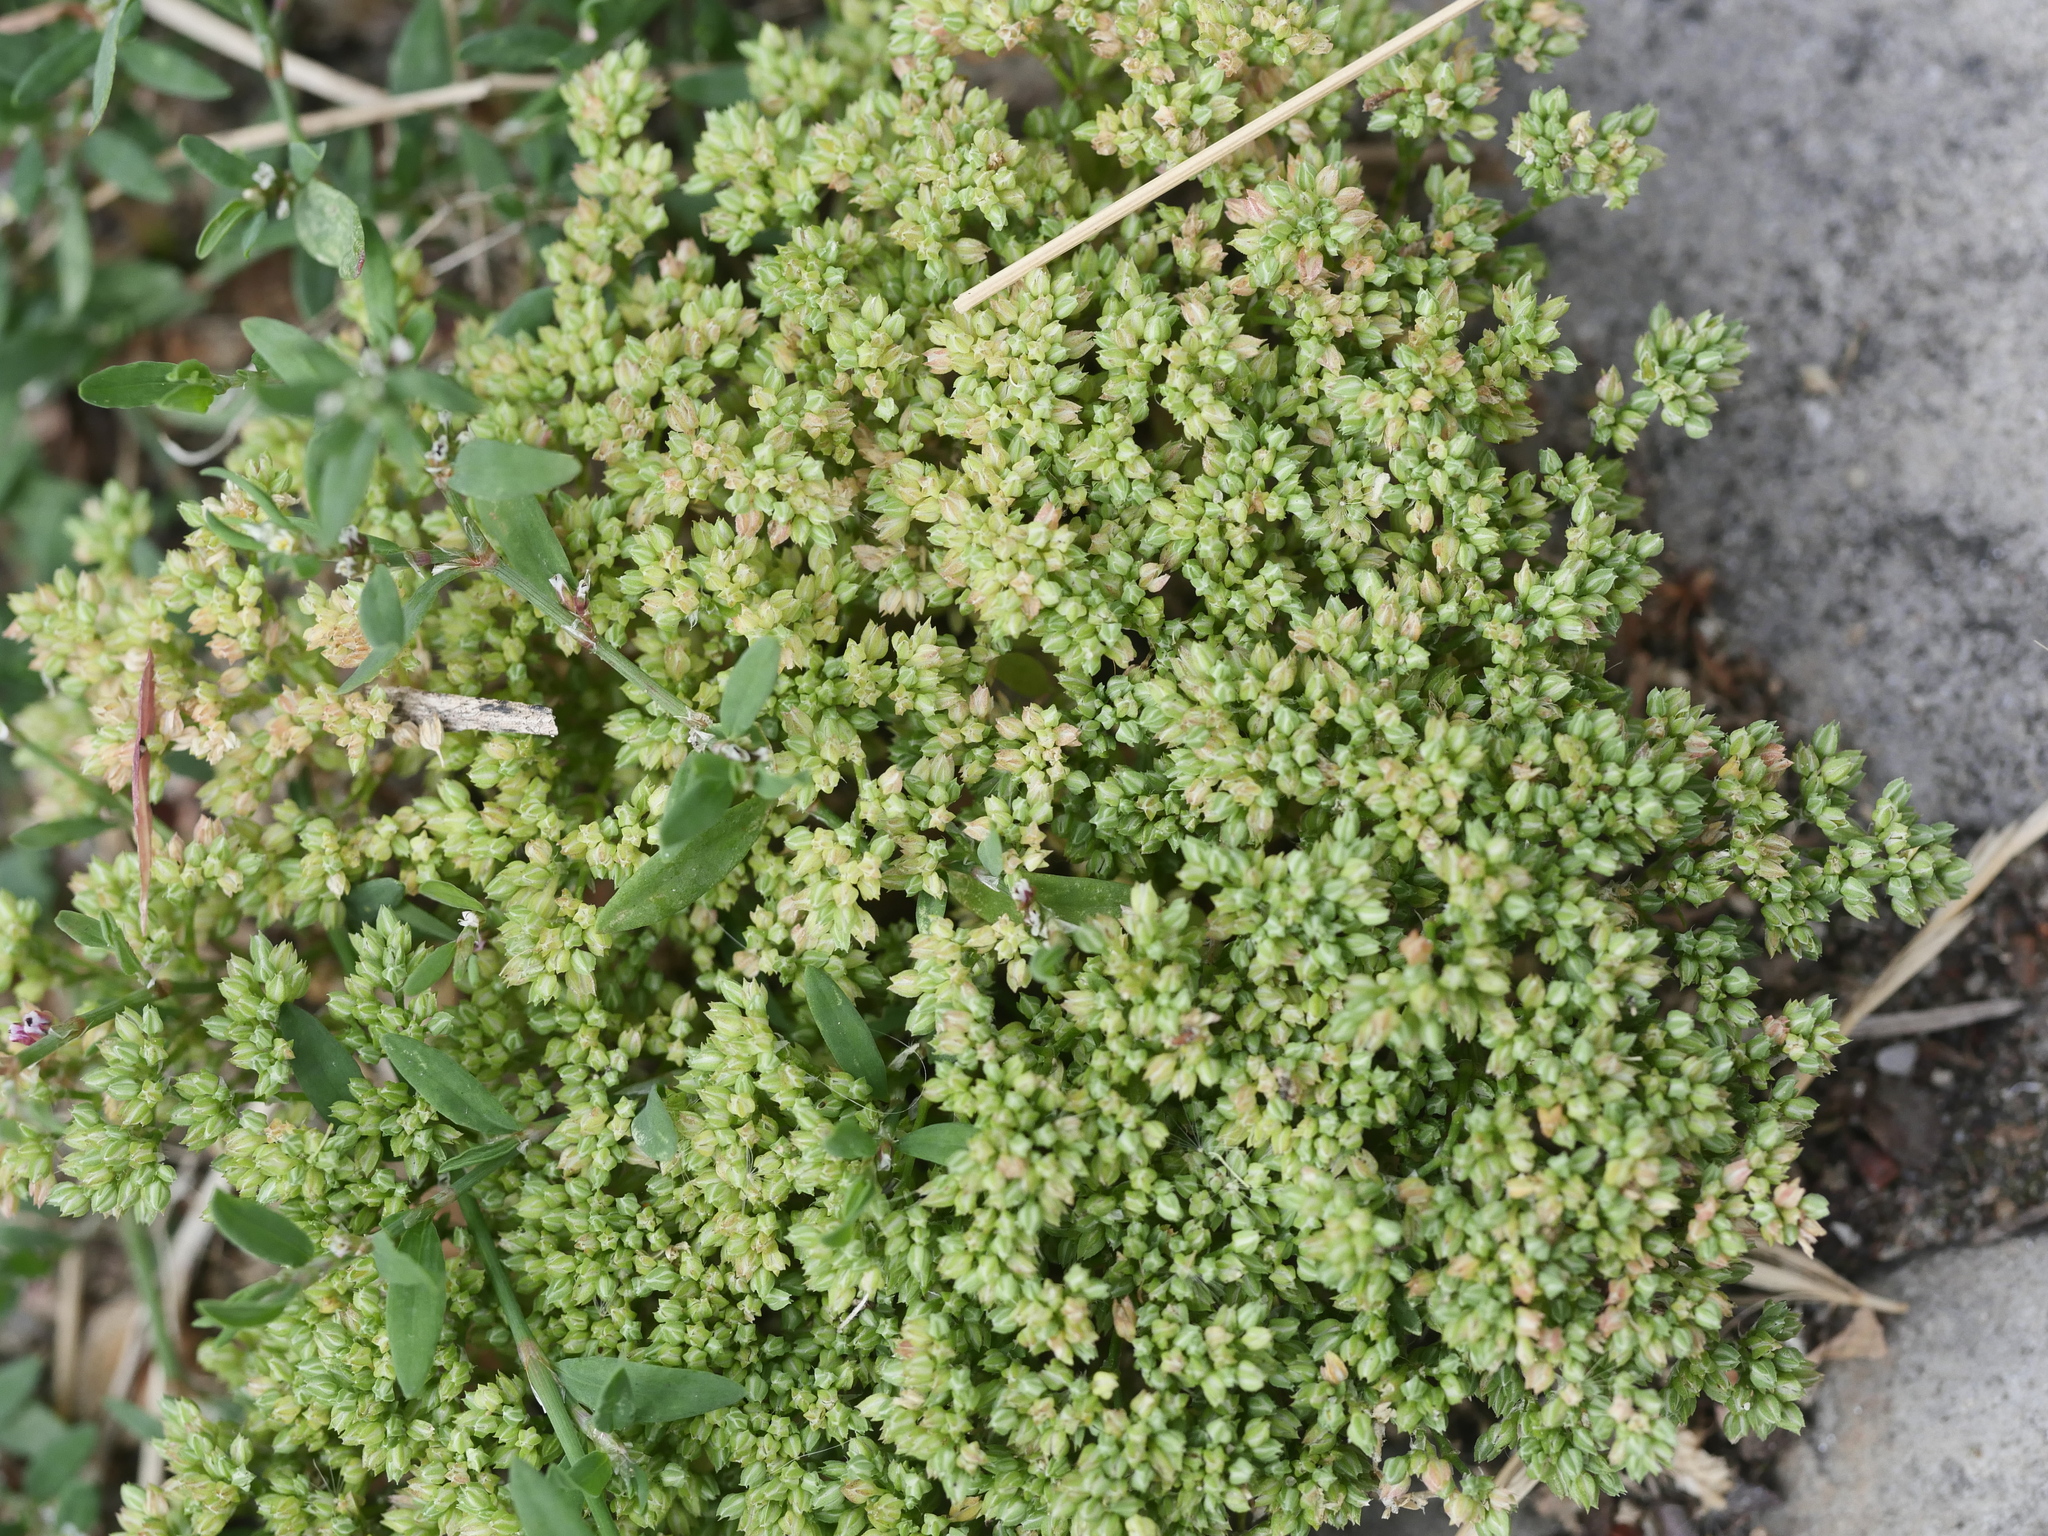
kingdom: Plantae
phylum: Tracheophyta
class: Magnoliopsida
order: Caryophyllales
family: Caryophyllaceae
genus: Polycarpon
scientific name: Polycarpon tetraphyllum
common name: Four-leaved all-seed
